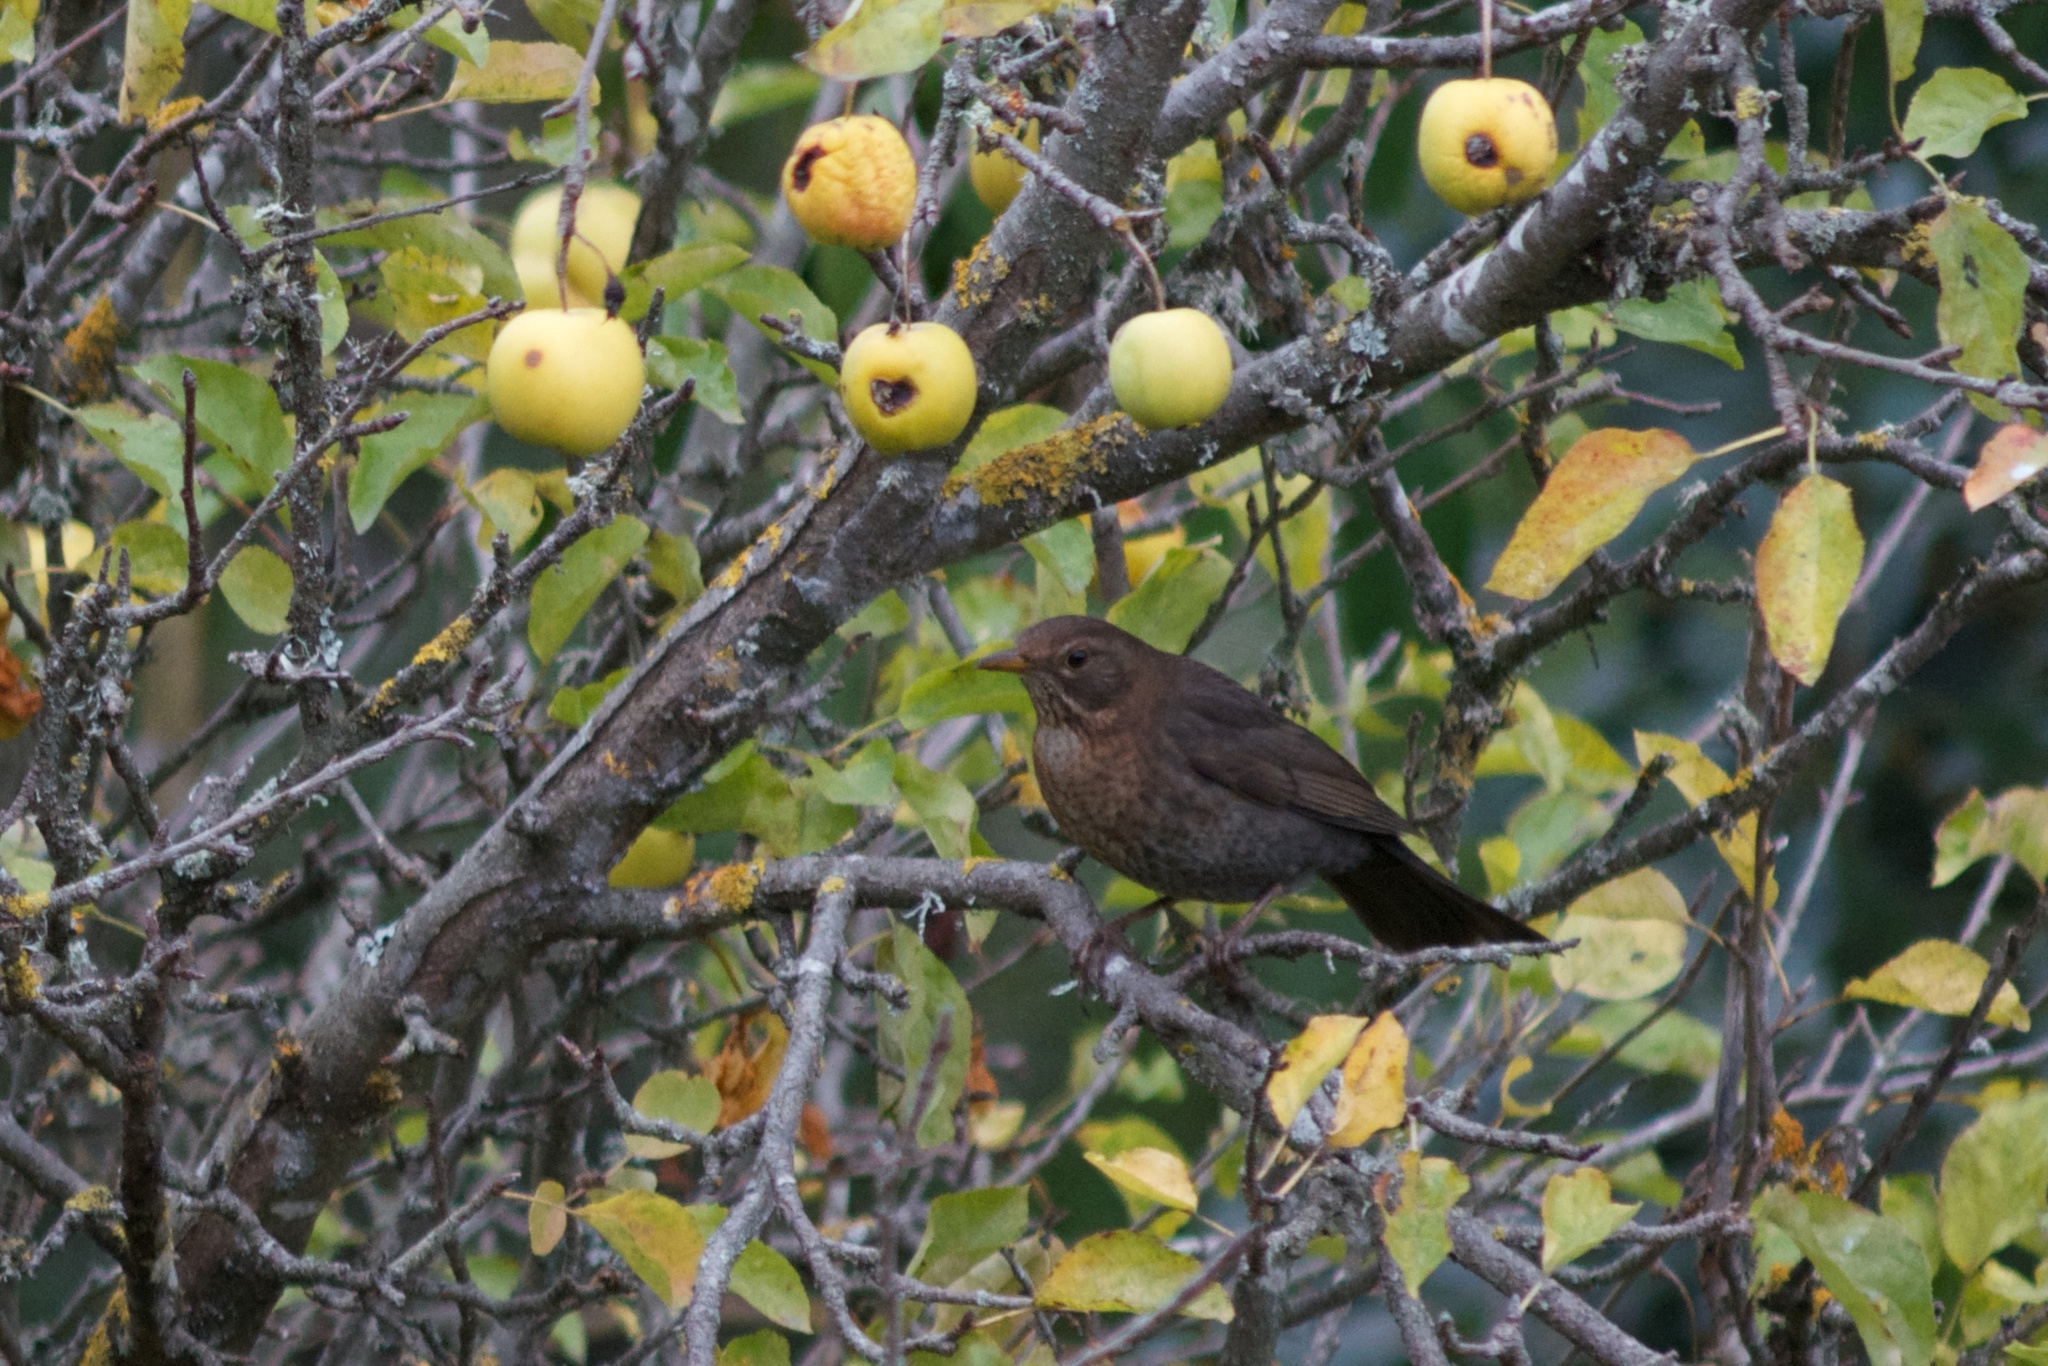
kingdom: Animalia
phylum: Chordata
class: Aves
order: Passeriformes
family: Turdidae
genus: Turdus
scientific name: Turdus merula
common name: Common blackbird
